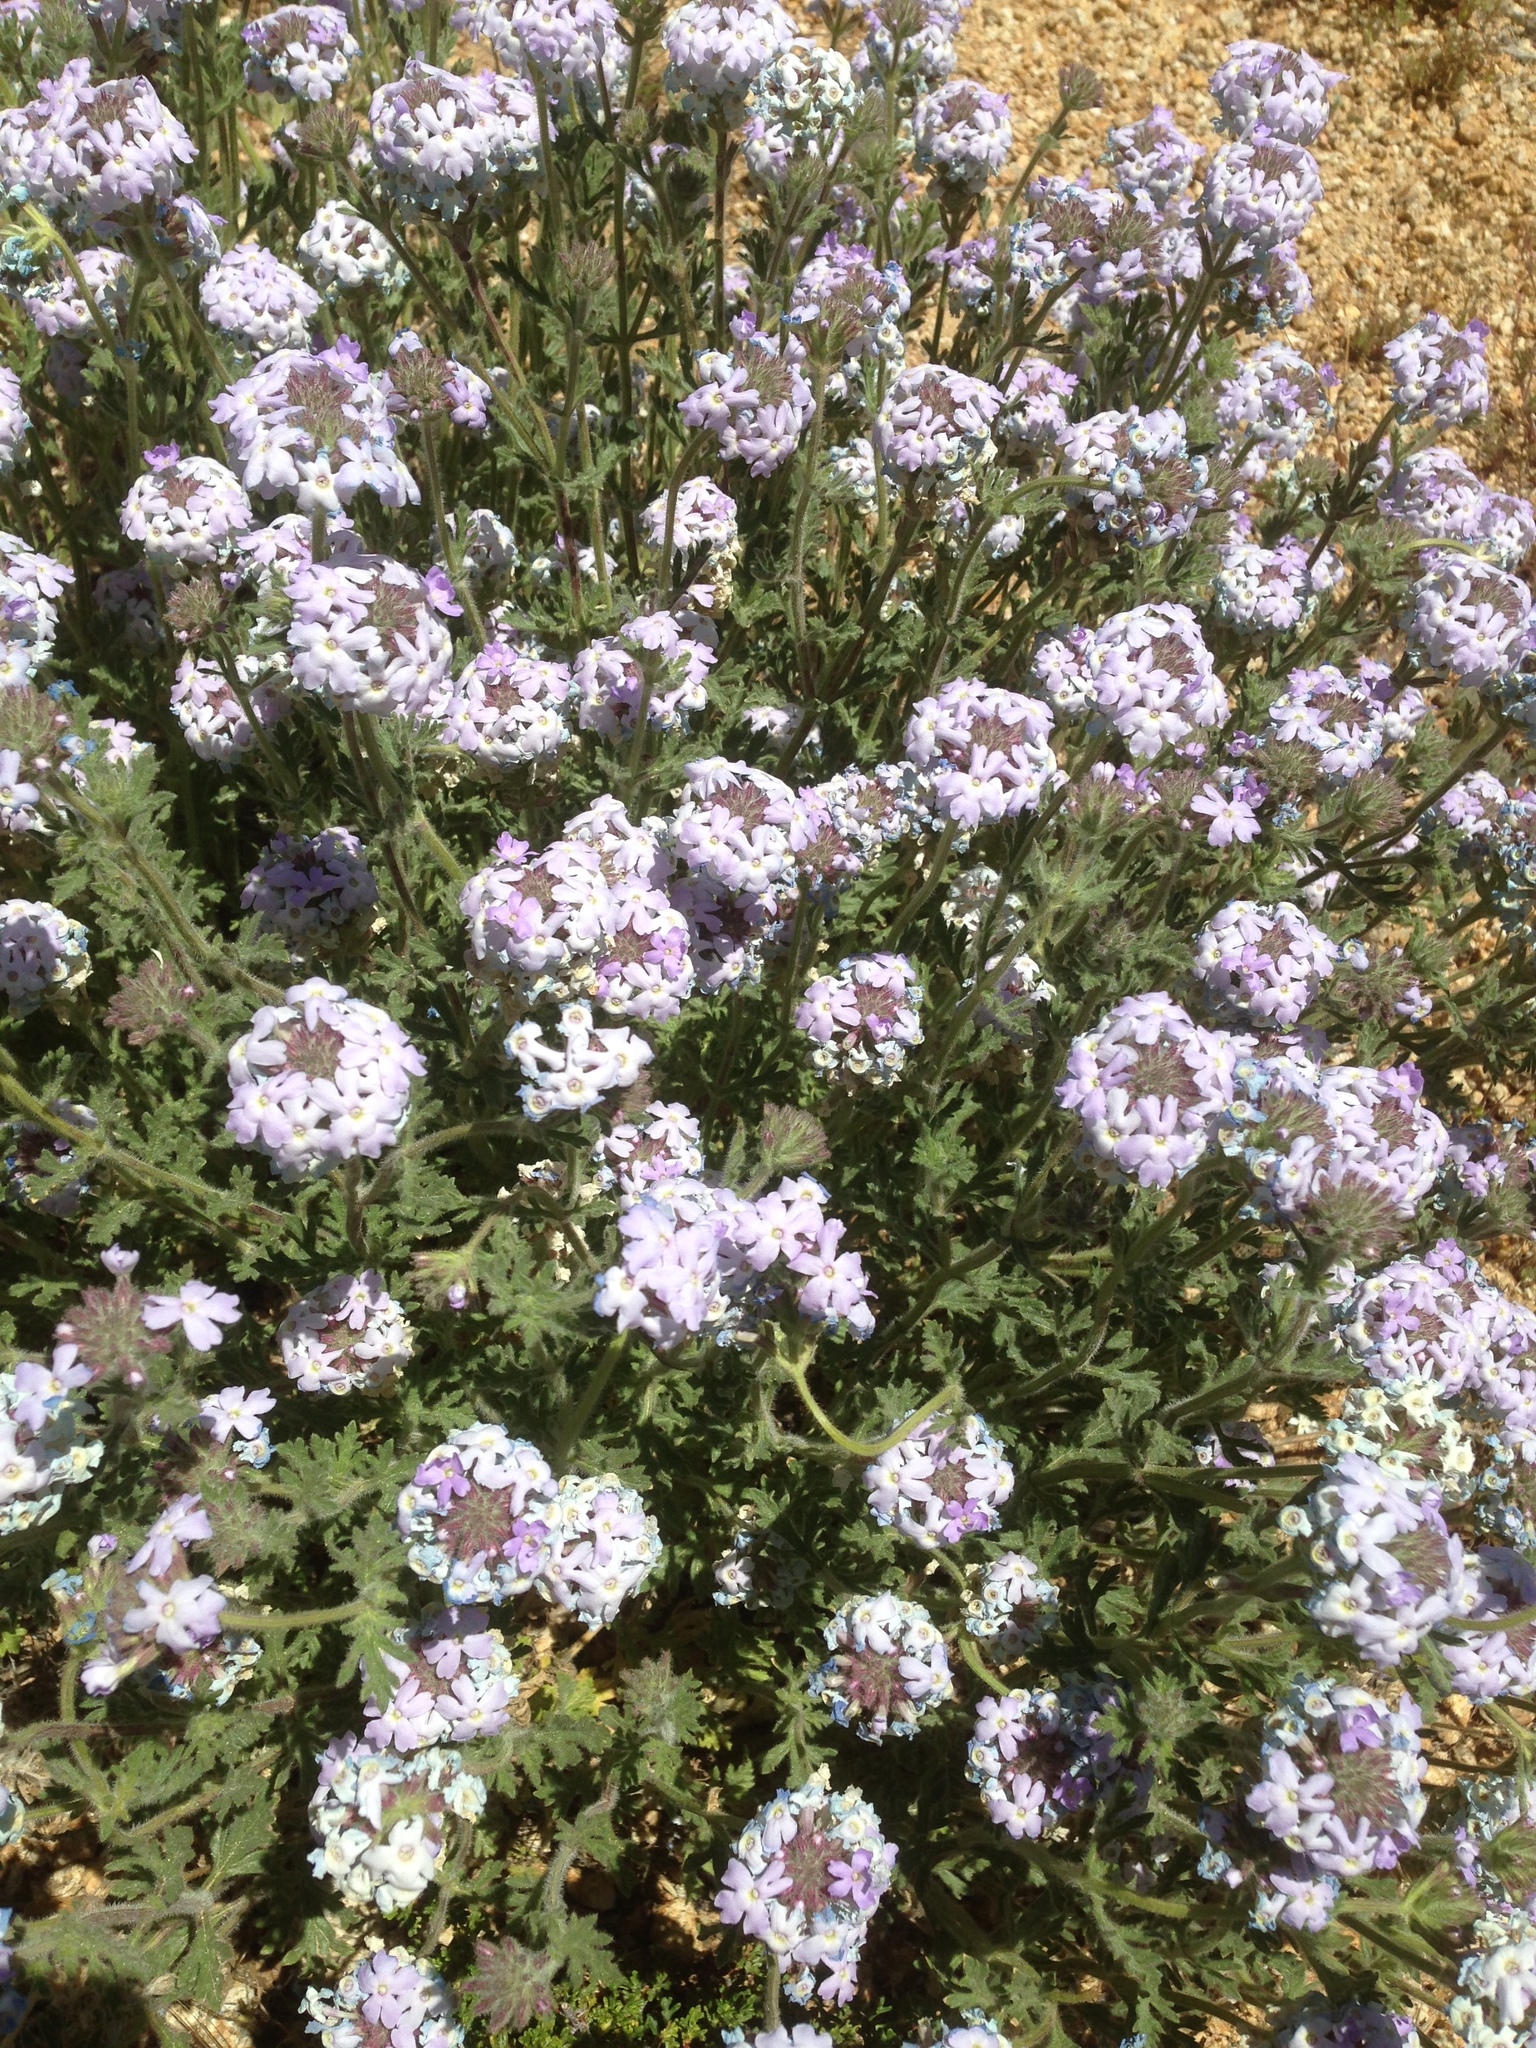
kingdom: Plantae
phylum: Tracheophyta
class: Magnoliopsida
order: Lamiales
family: Verbenaceae
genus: Verbena
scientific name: Verbena gooddingii
